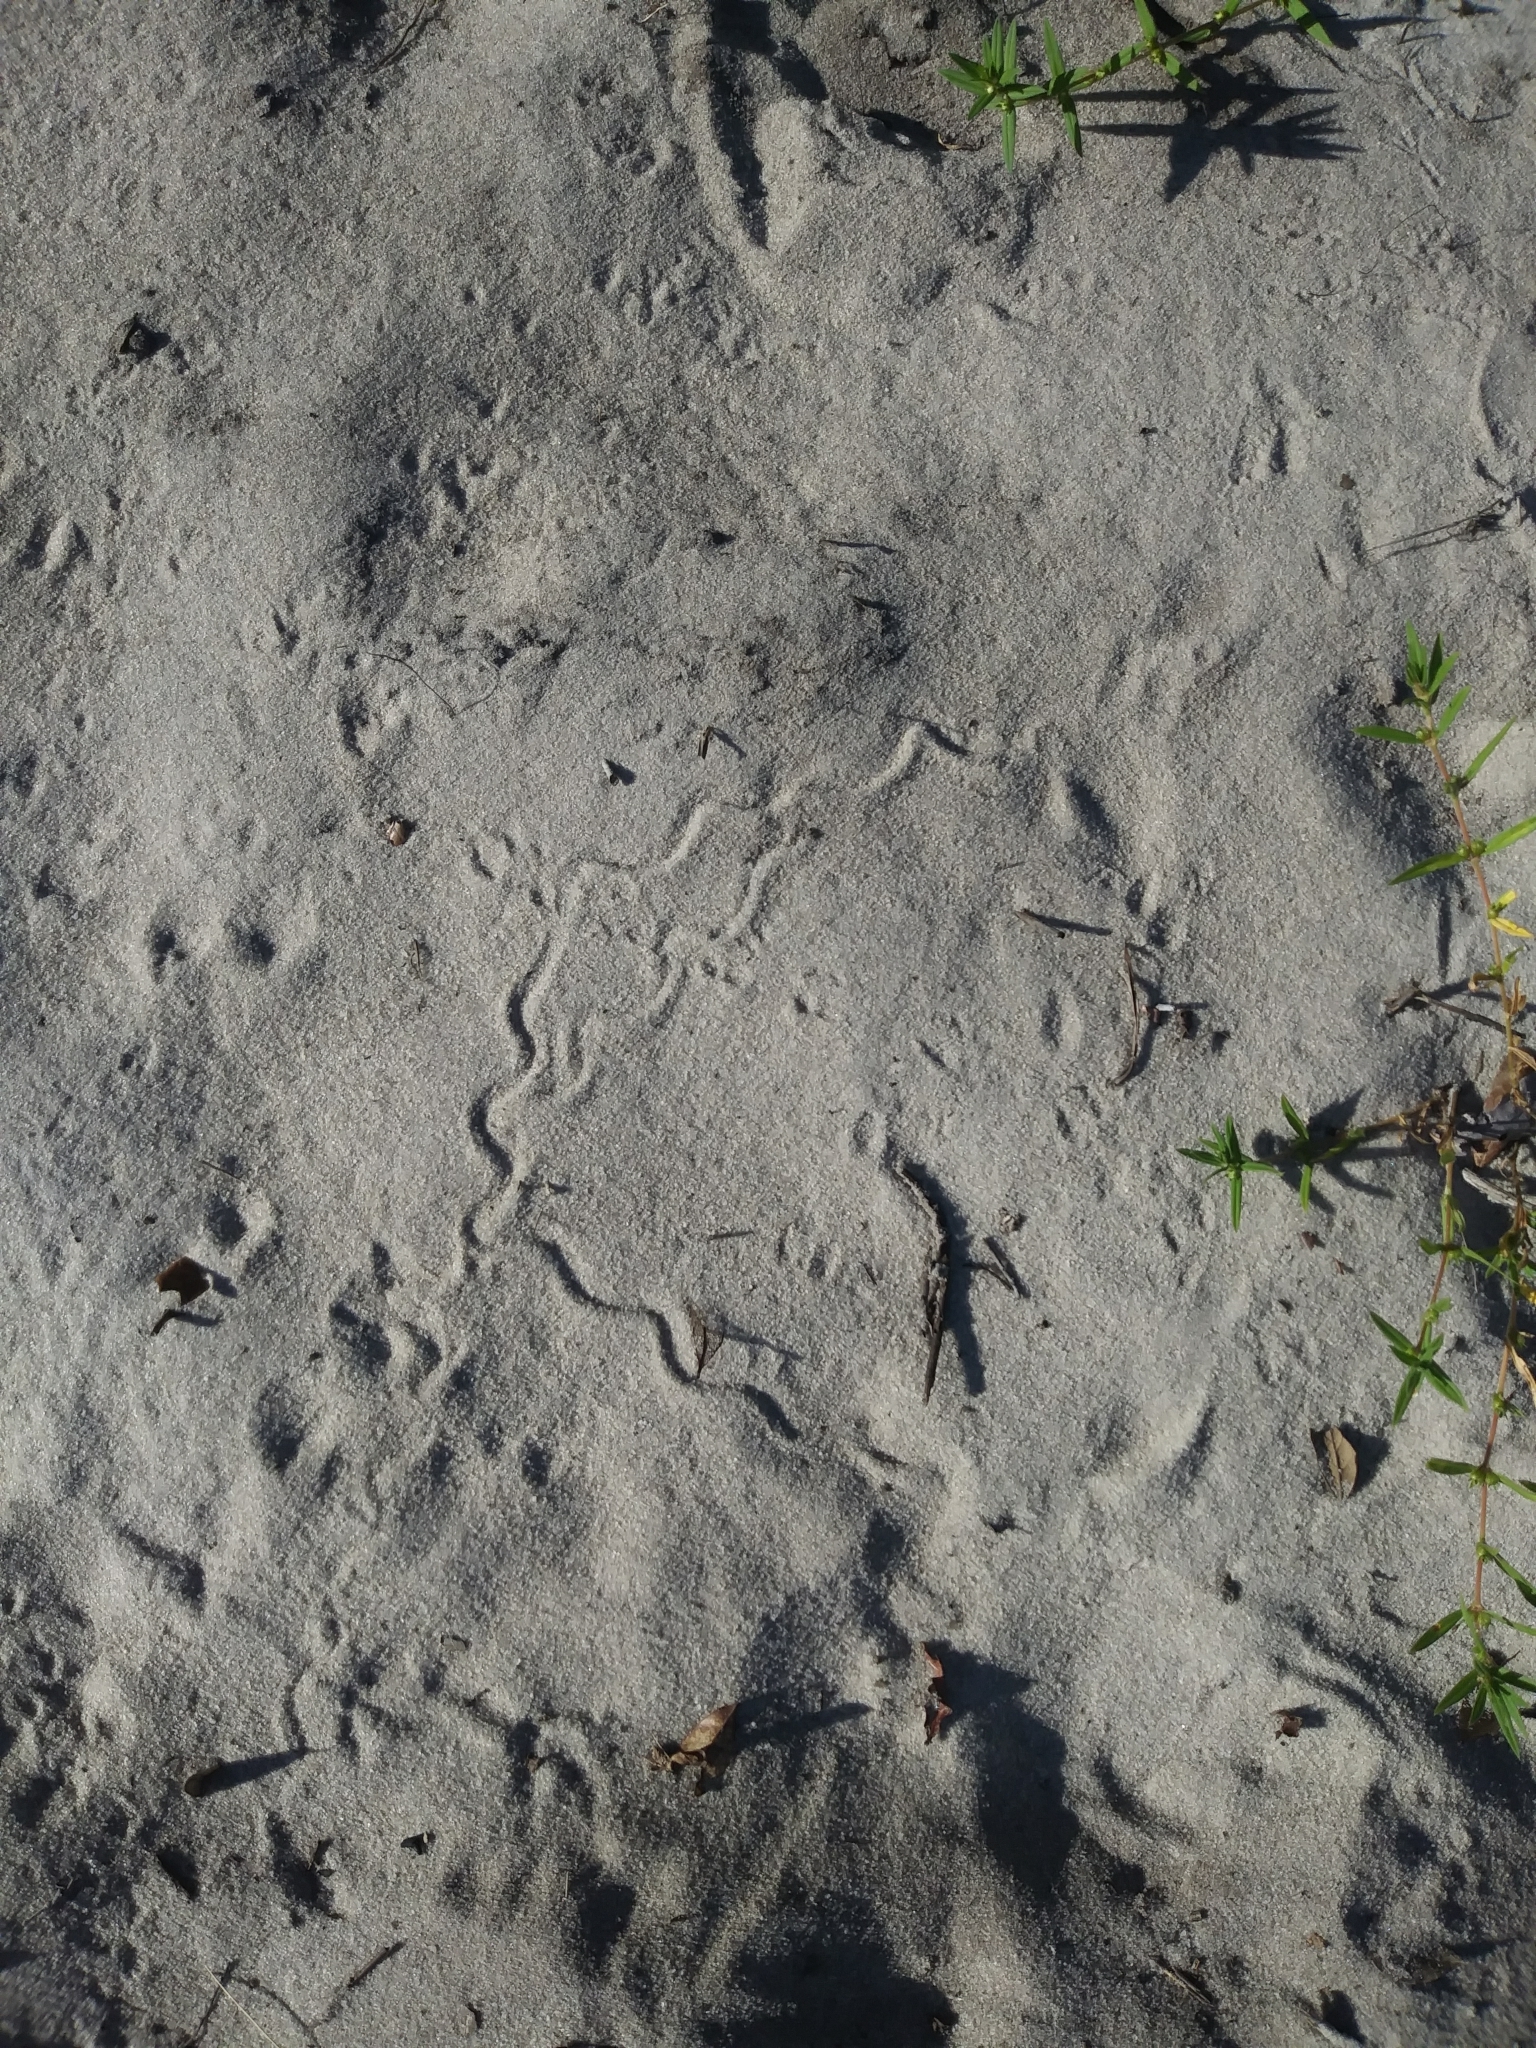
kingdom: Animalia
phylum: Chordata
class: Squamata
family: Scincidae
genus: Plestiodon
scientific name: Plestiodon reynoldsi
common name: Florida sand skink
